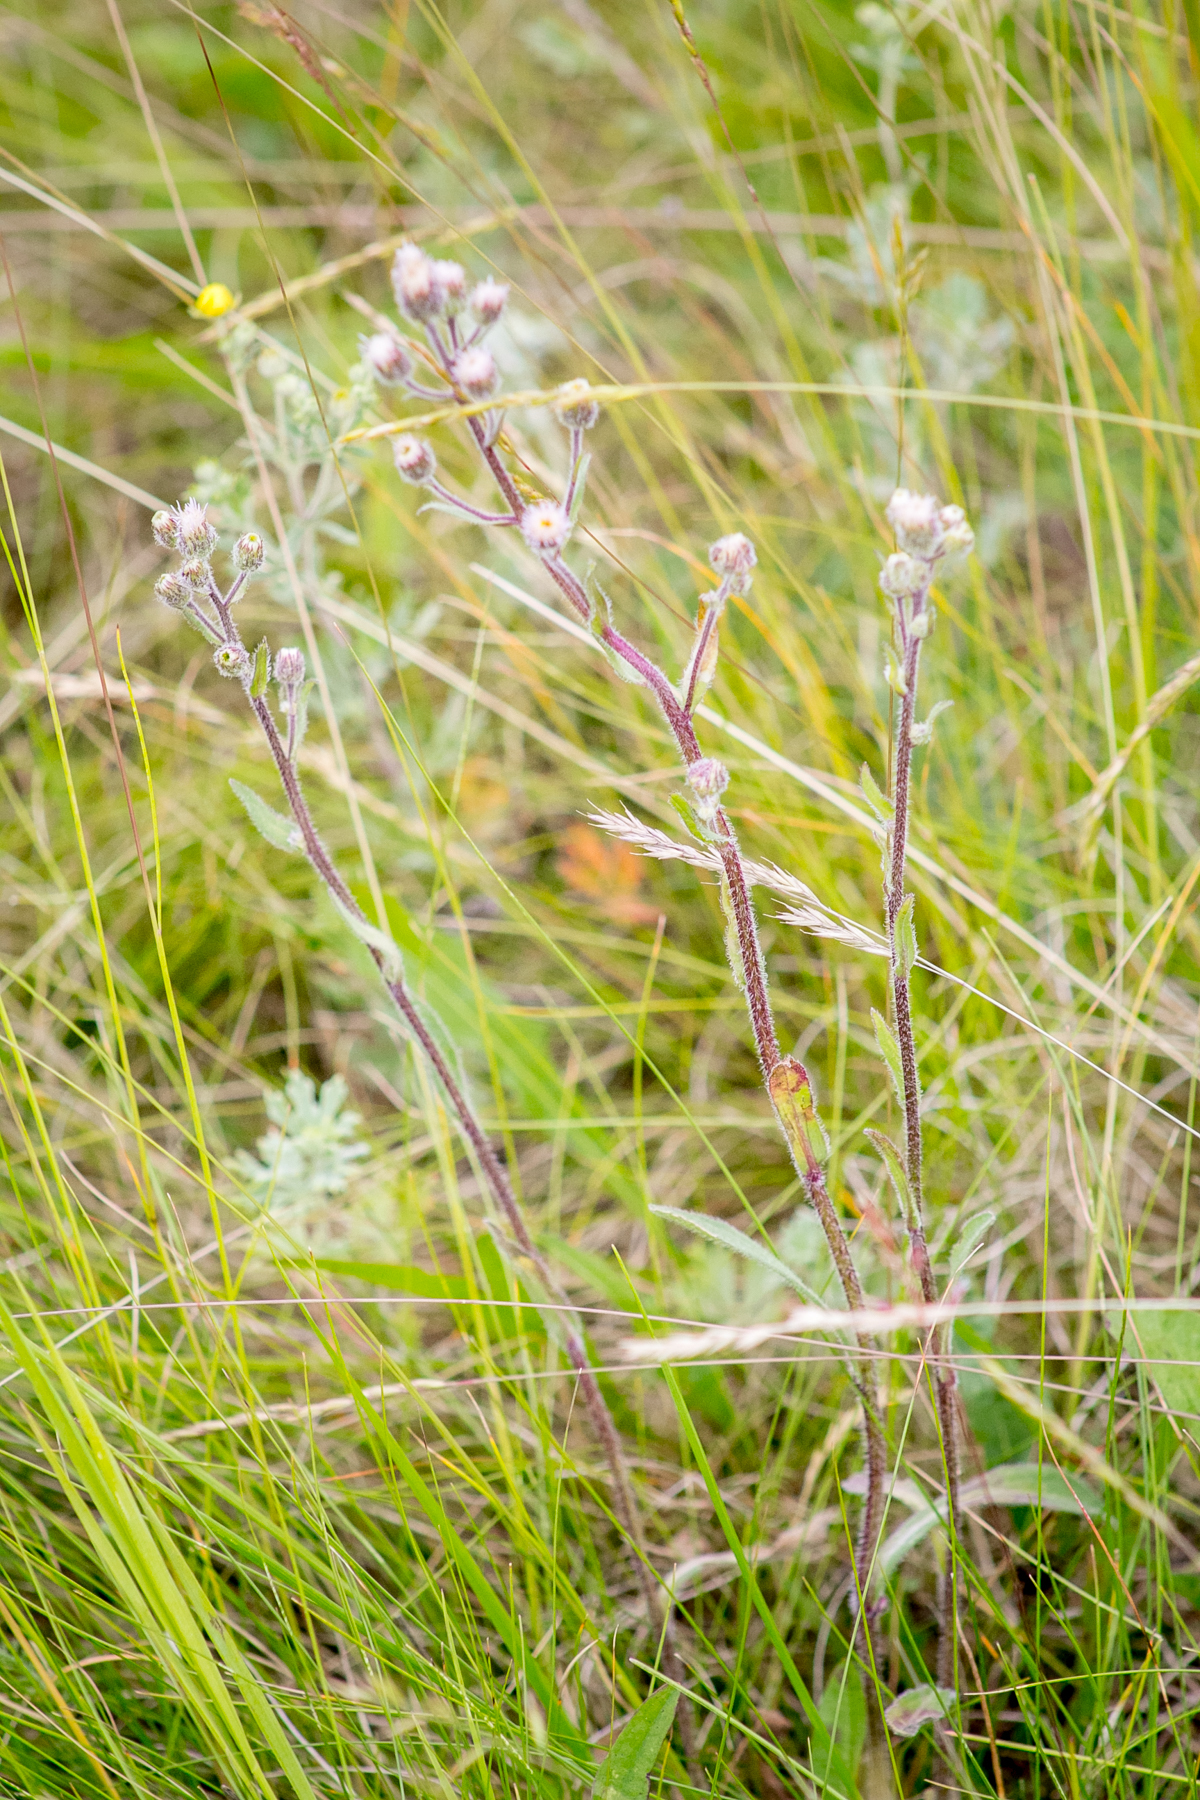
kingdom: Plantae
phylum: Tracheophyta
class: Magnoliopsida
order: Asterales
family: Asteraceae
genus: Erigeron
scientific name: Erigeron acris
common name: Blue fleabane
